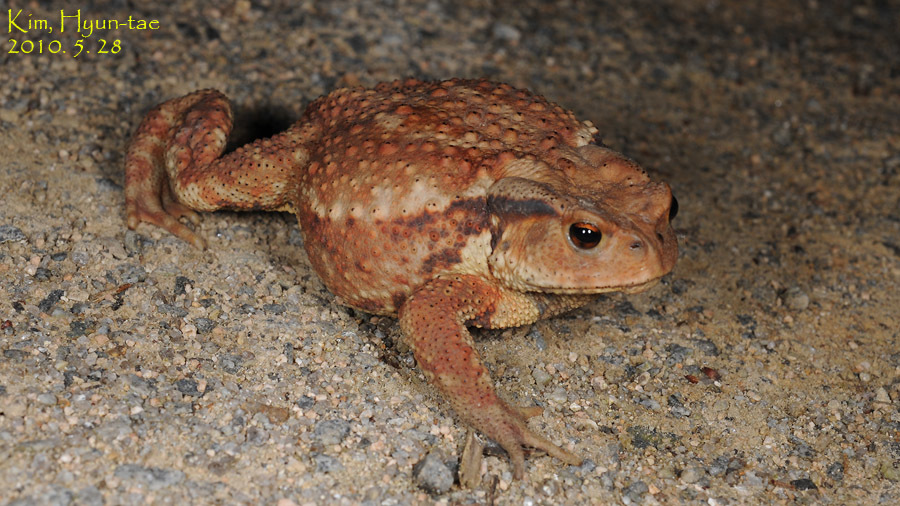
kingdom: Animalia
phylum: Chordata
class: Amphibia
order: Anura
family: Bufonidae
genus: Bufo
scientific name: Bufo gargarizans
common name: Asiatic toad
